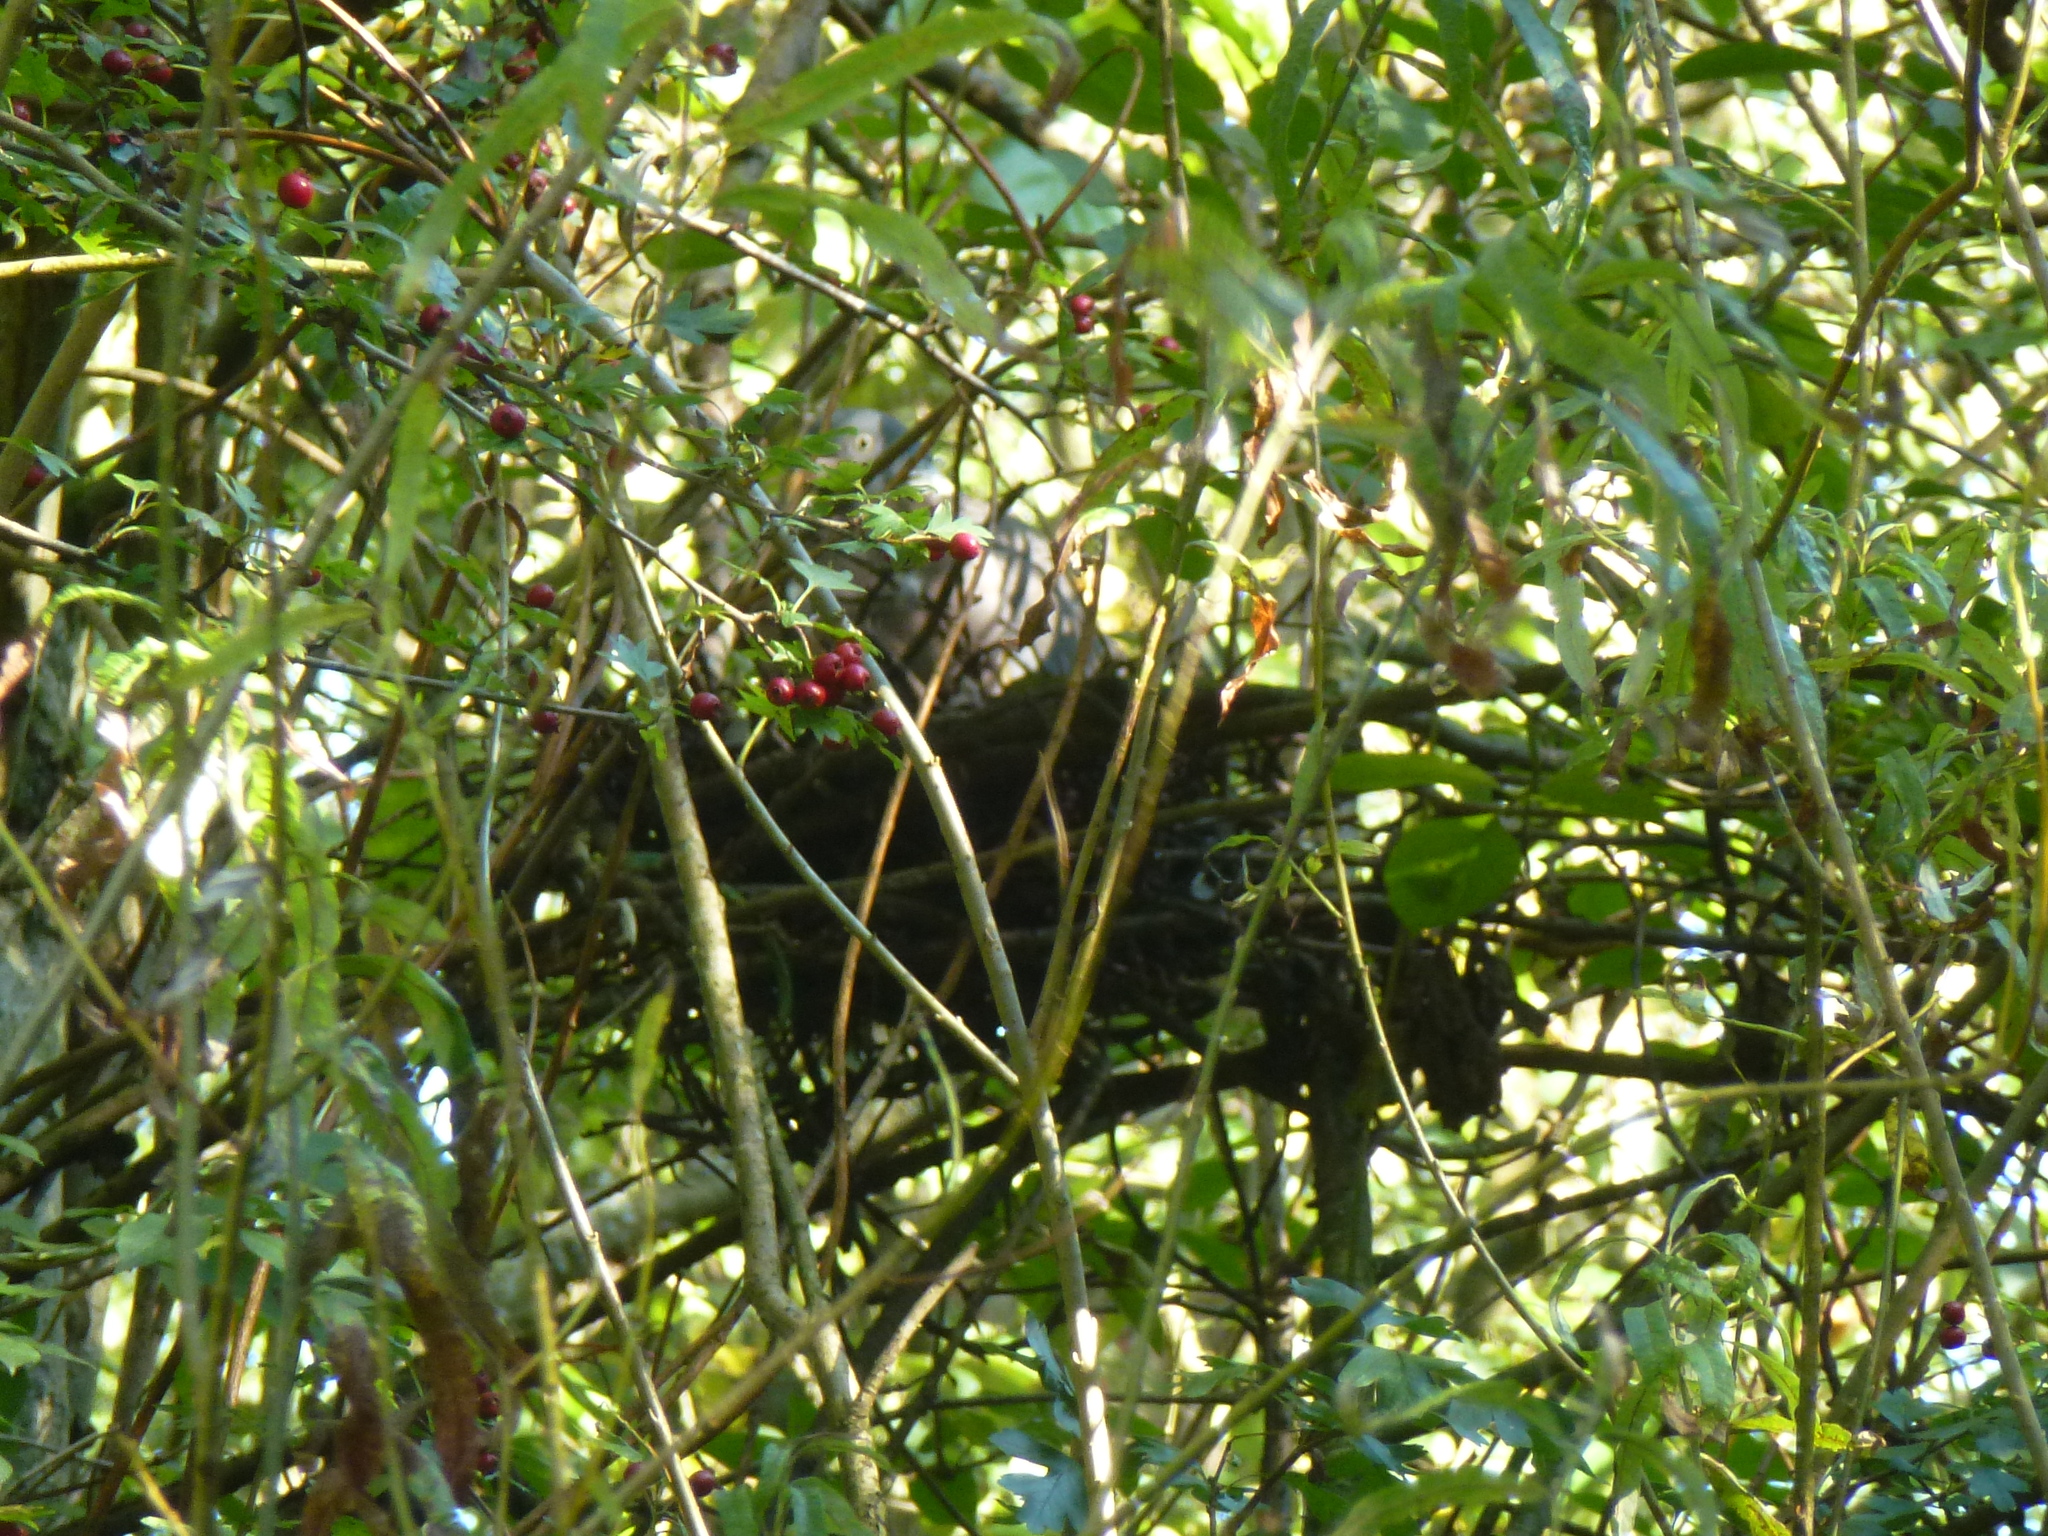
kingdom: Animalia
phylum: Chordata
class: Aves
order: Columbiformes
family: Columbidae
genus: Columba
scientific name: Columba palumbus
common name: Common wood pigeon
